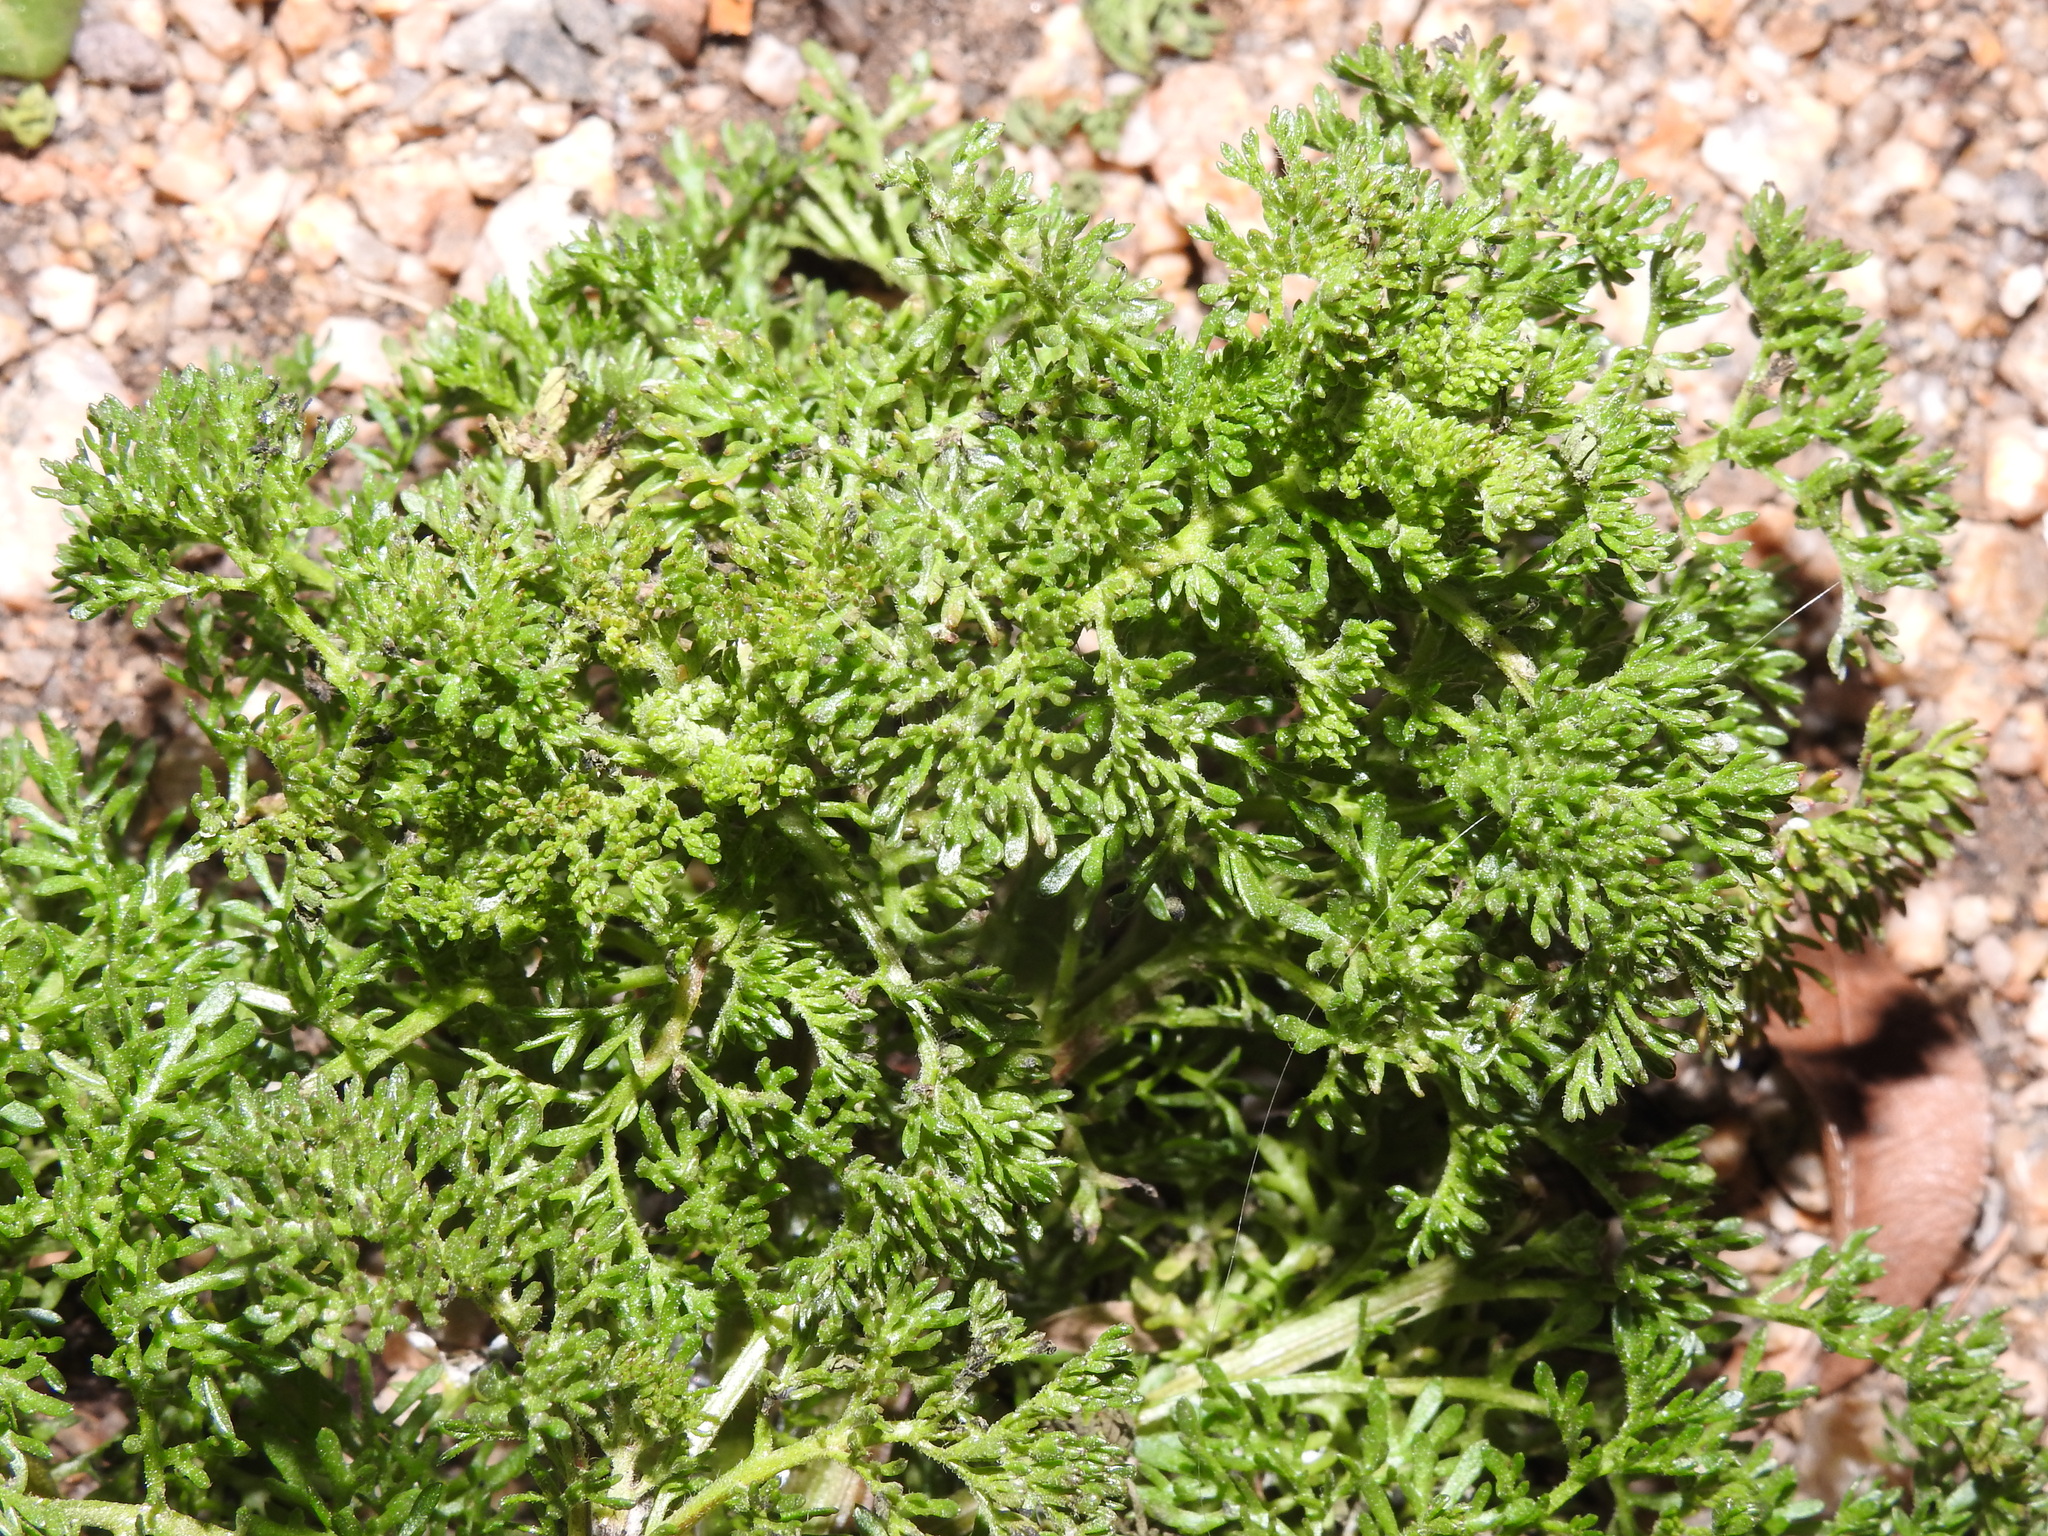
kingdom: Plantae
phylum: Tracheophyta
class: Magnoliopsida
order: Asterales
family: Asteraceae
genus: Oncosiphon
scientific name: Oncosiphon pilulifer
